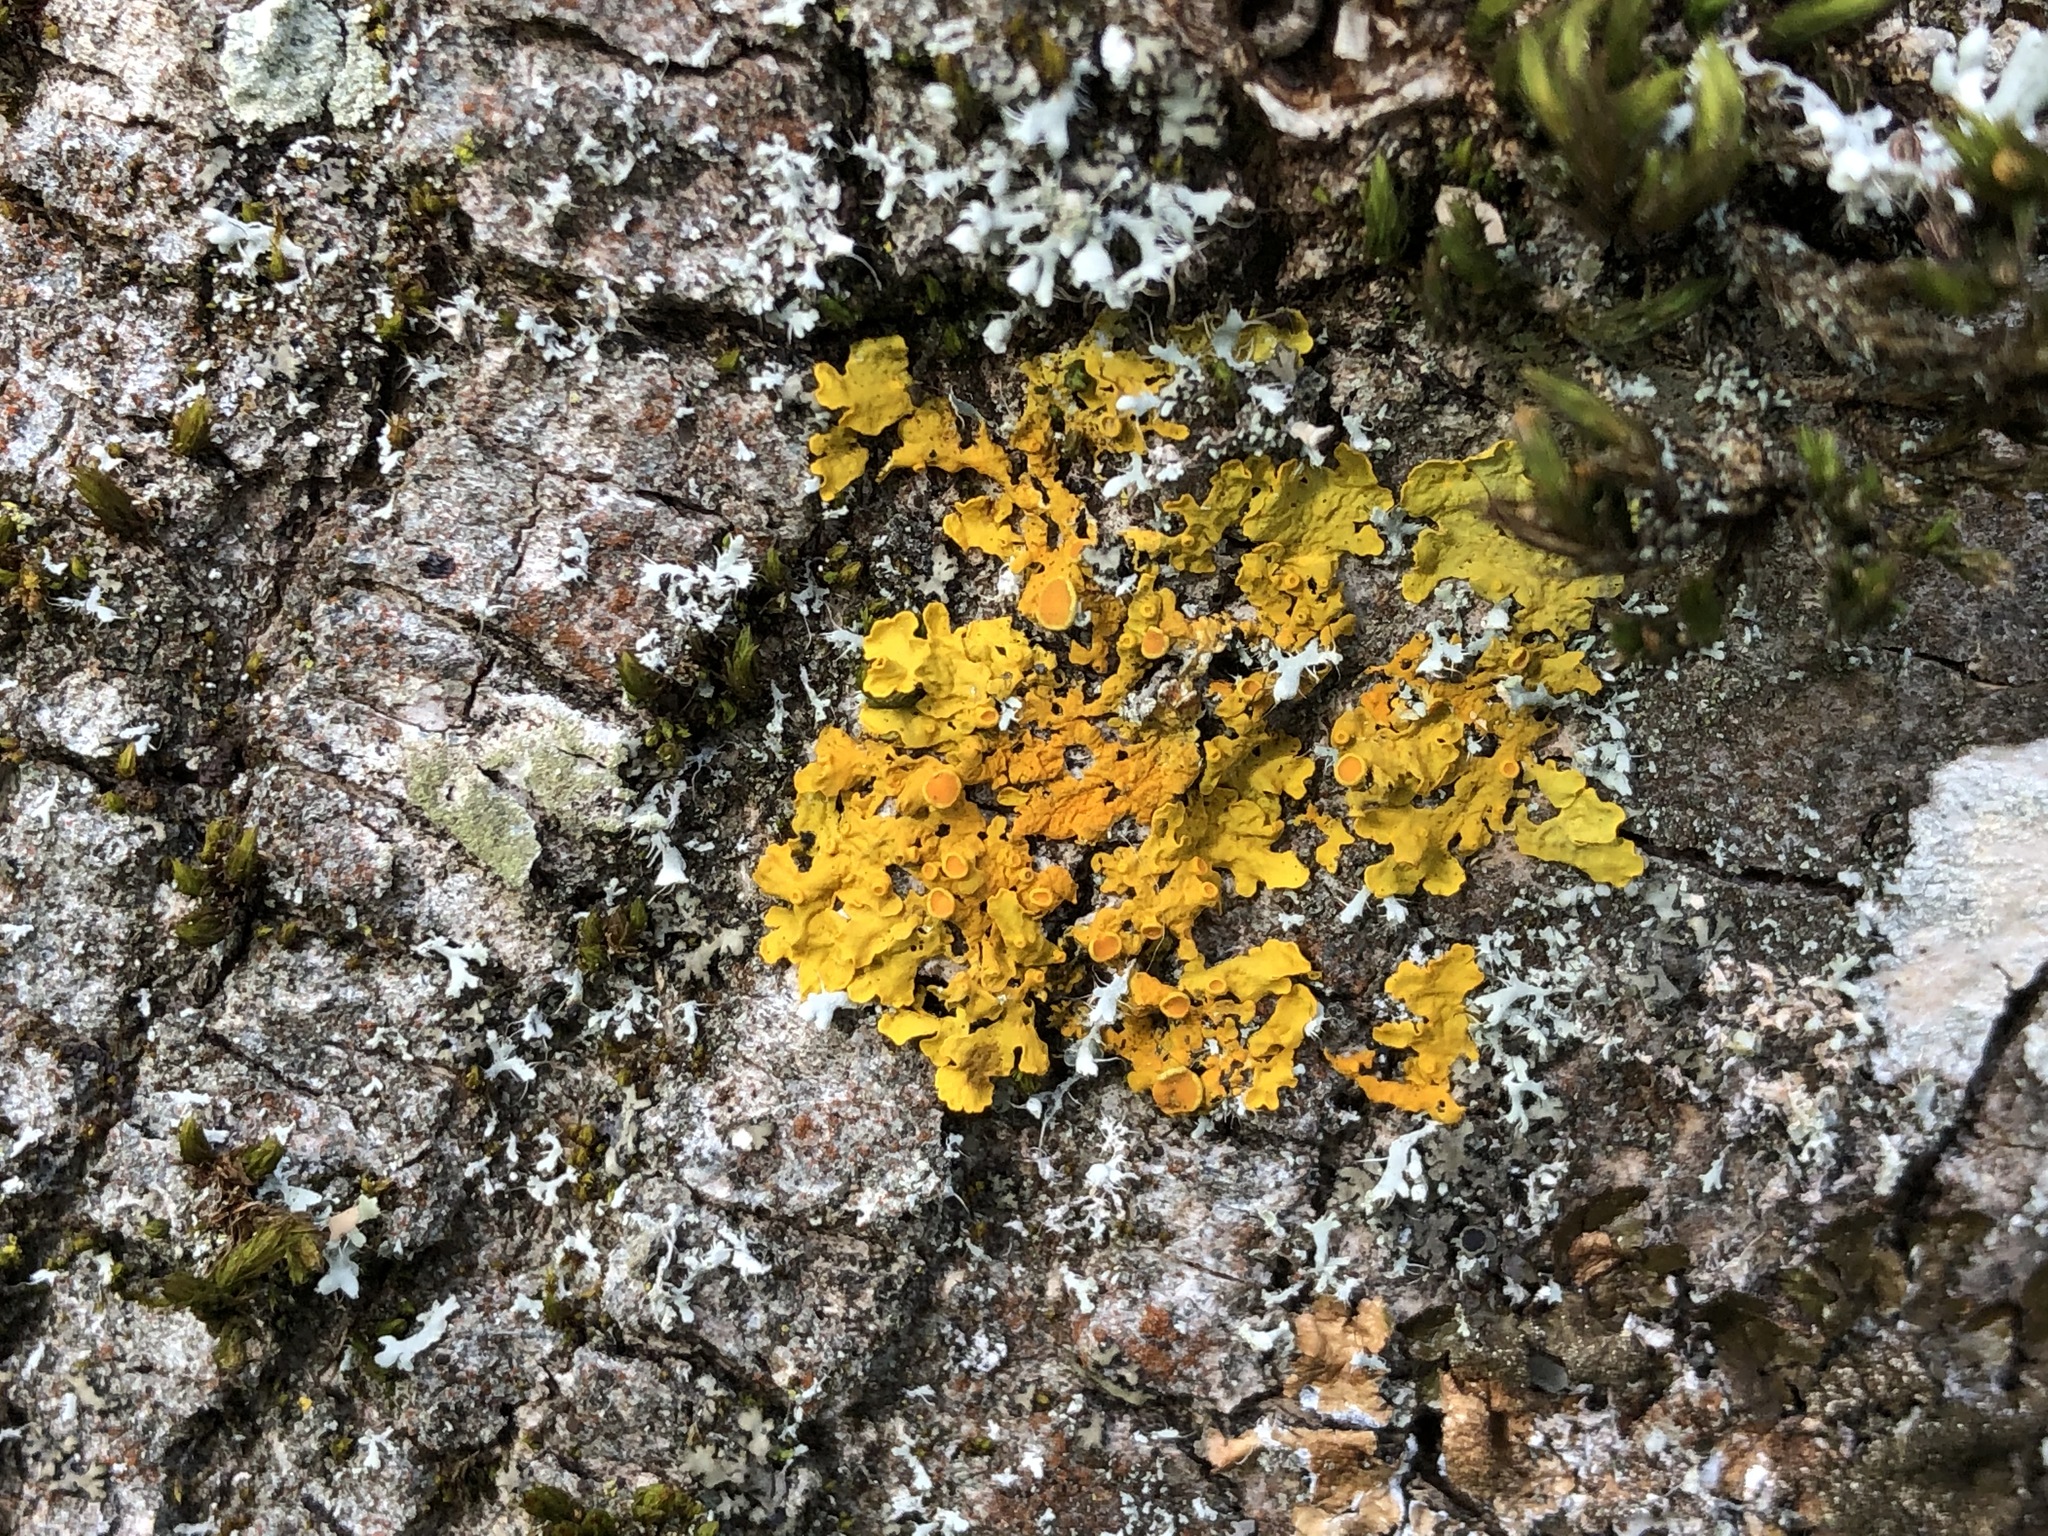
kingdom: Fungi
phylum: Ascomycota
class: Lecanoromycetes
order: Teloschistales
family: Teloschistaceae
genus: Xanthoria
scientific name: Xanthoria parietina
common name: Common orange lichen
